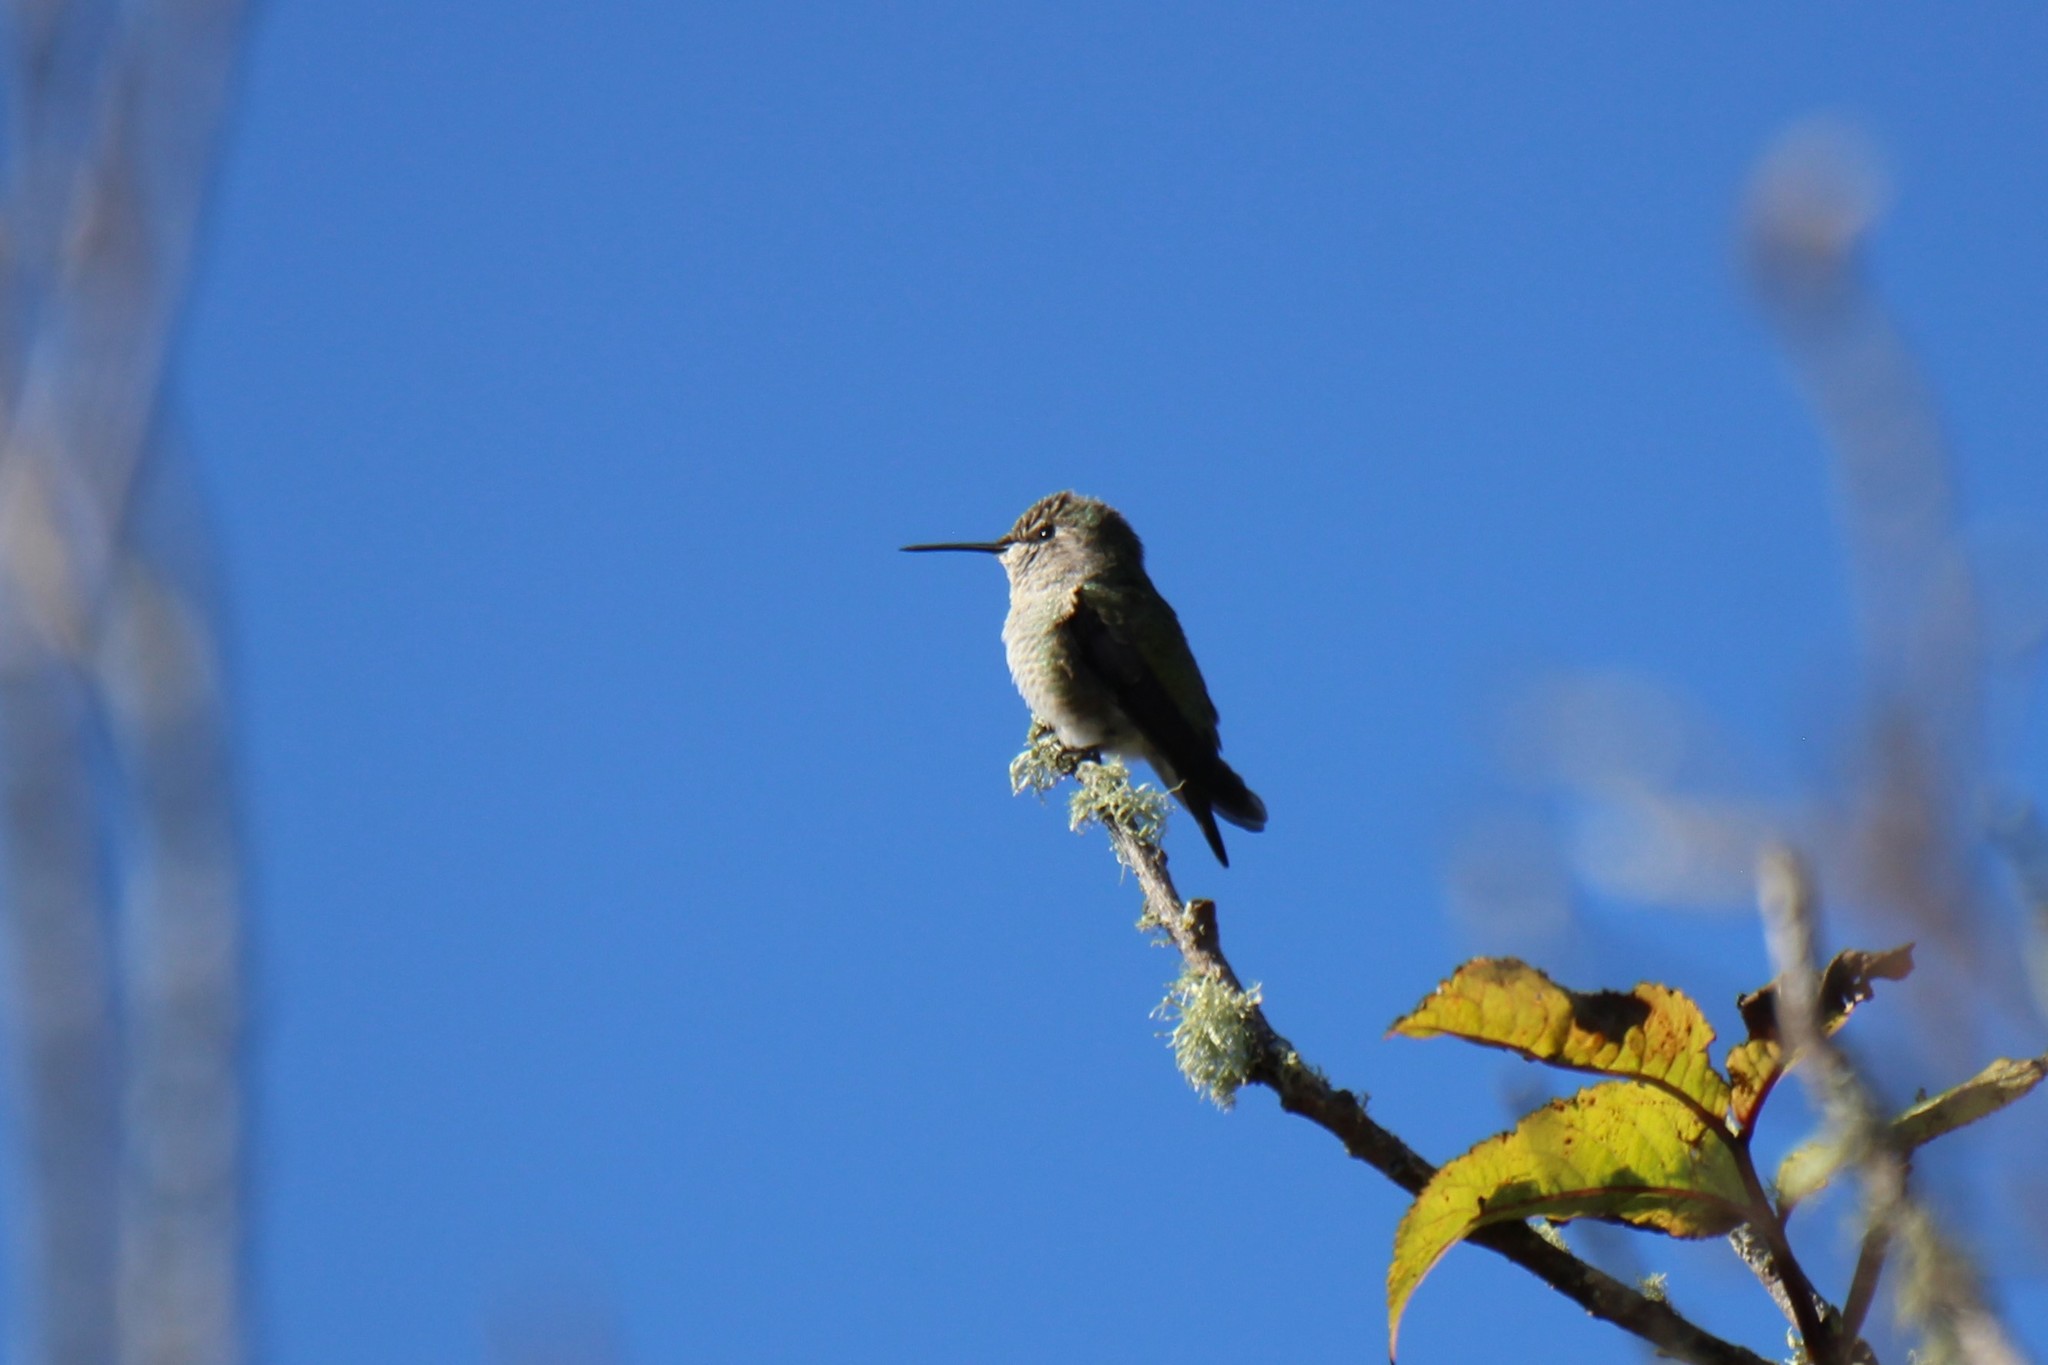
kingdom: Animalia
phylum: Chordata
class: Aves
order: Apodiformes
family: Trochilidae
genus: Calypte
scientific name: Calypte anna
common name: Anna's hummingbird
